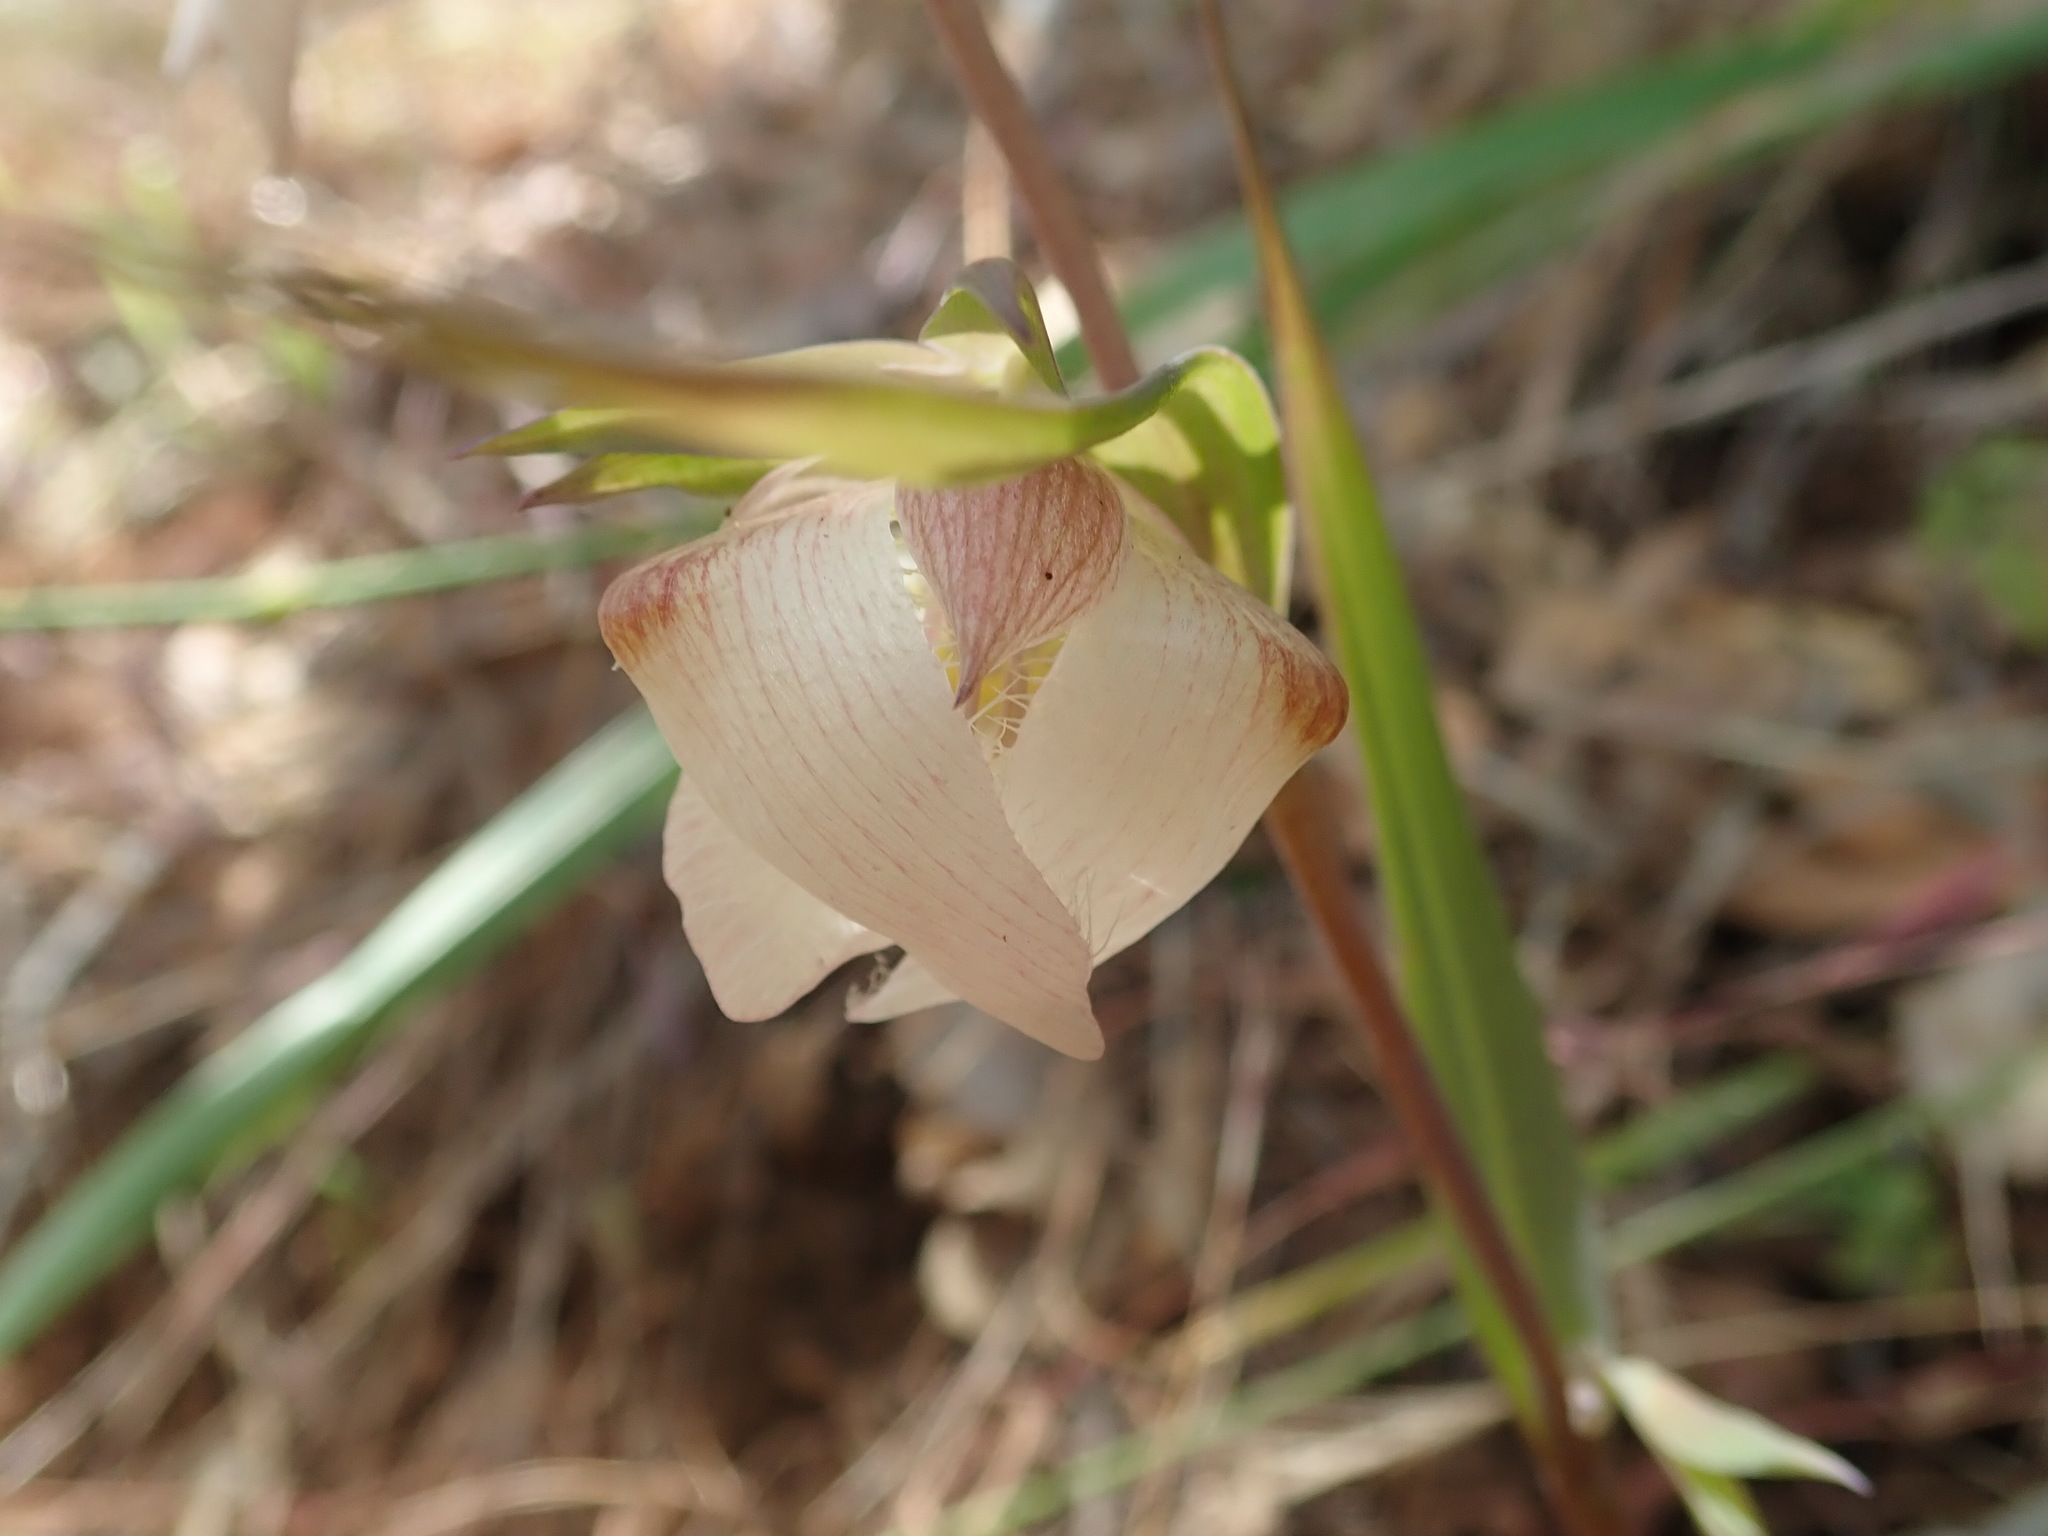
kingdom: Plantae
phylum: Tracheophyta
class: Liliopsida
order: Liliales
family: Liliaceae
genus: Calochortus
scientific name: Calochortus albus
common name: Fairy-lantern
